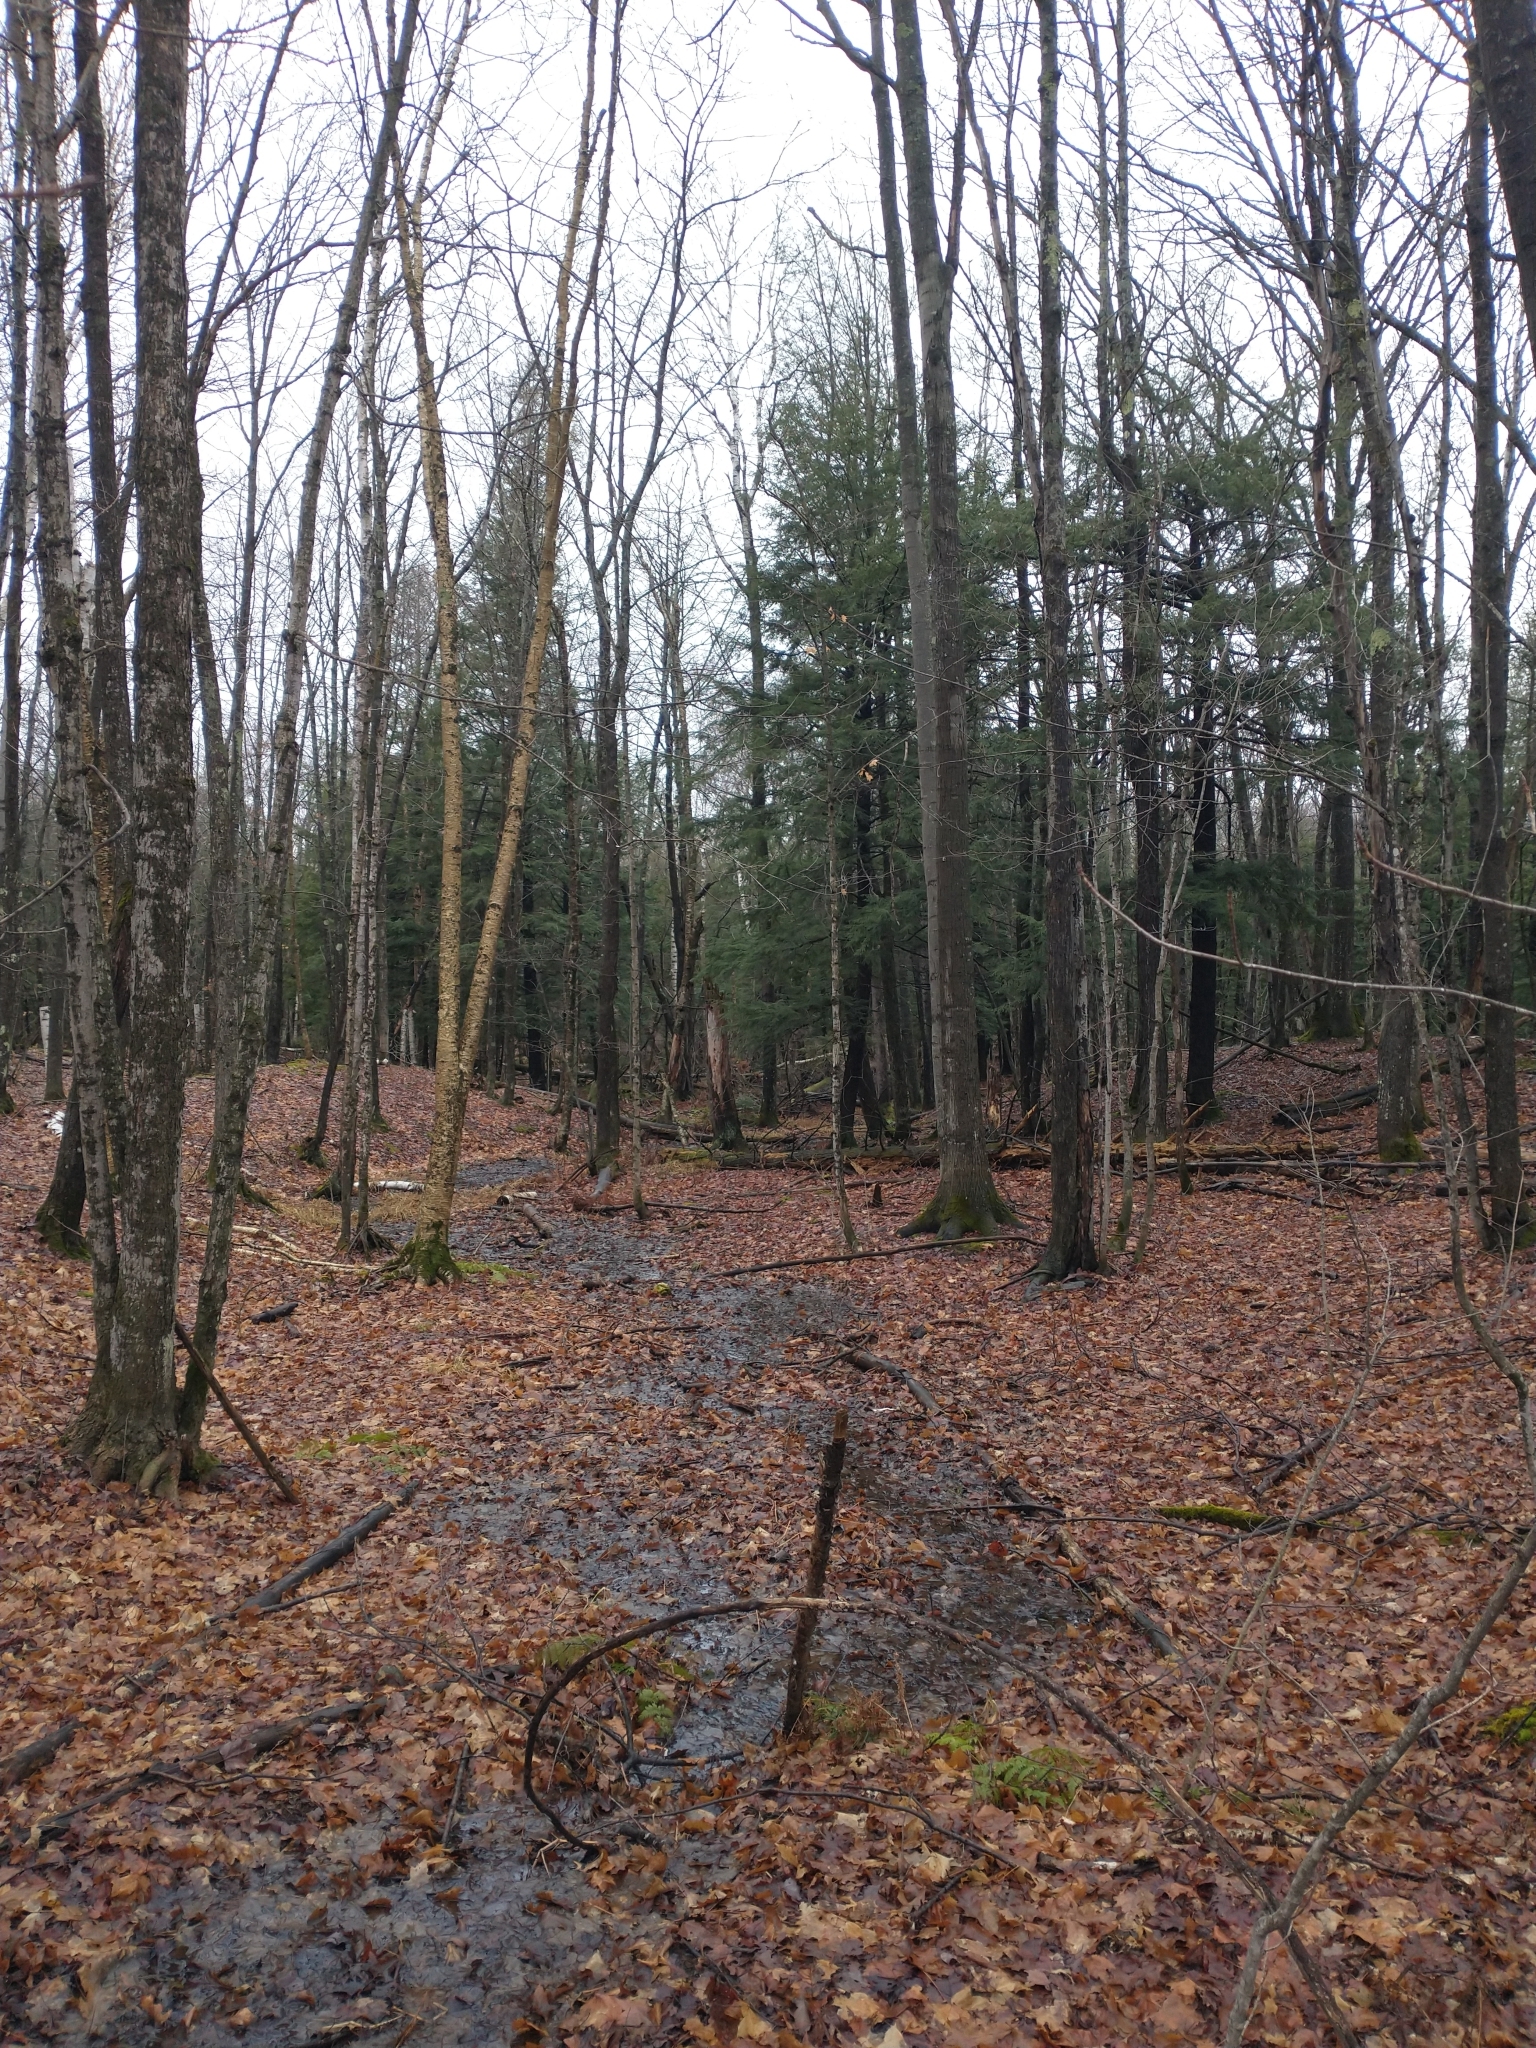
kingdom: Plantae
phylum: Tracheophyta
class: Magnoliopsida
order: Sapindales
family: Sapindaceae
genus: Acer
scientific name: Acer saccharum
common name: Sugar maple
